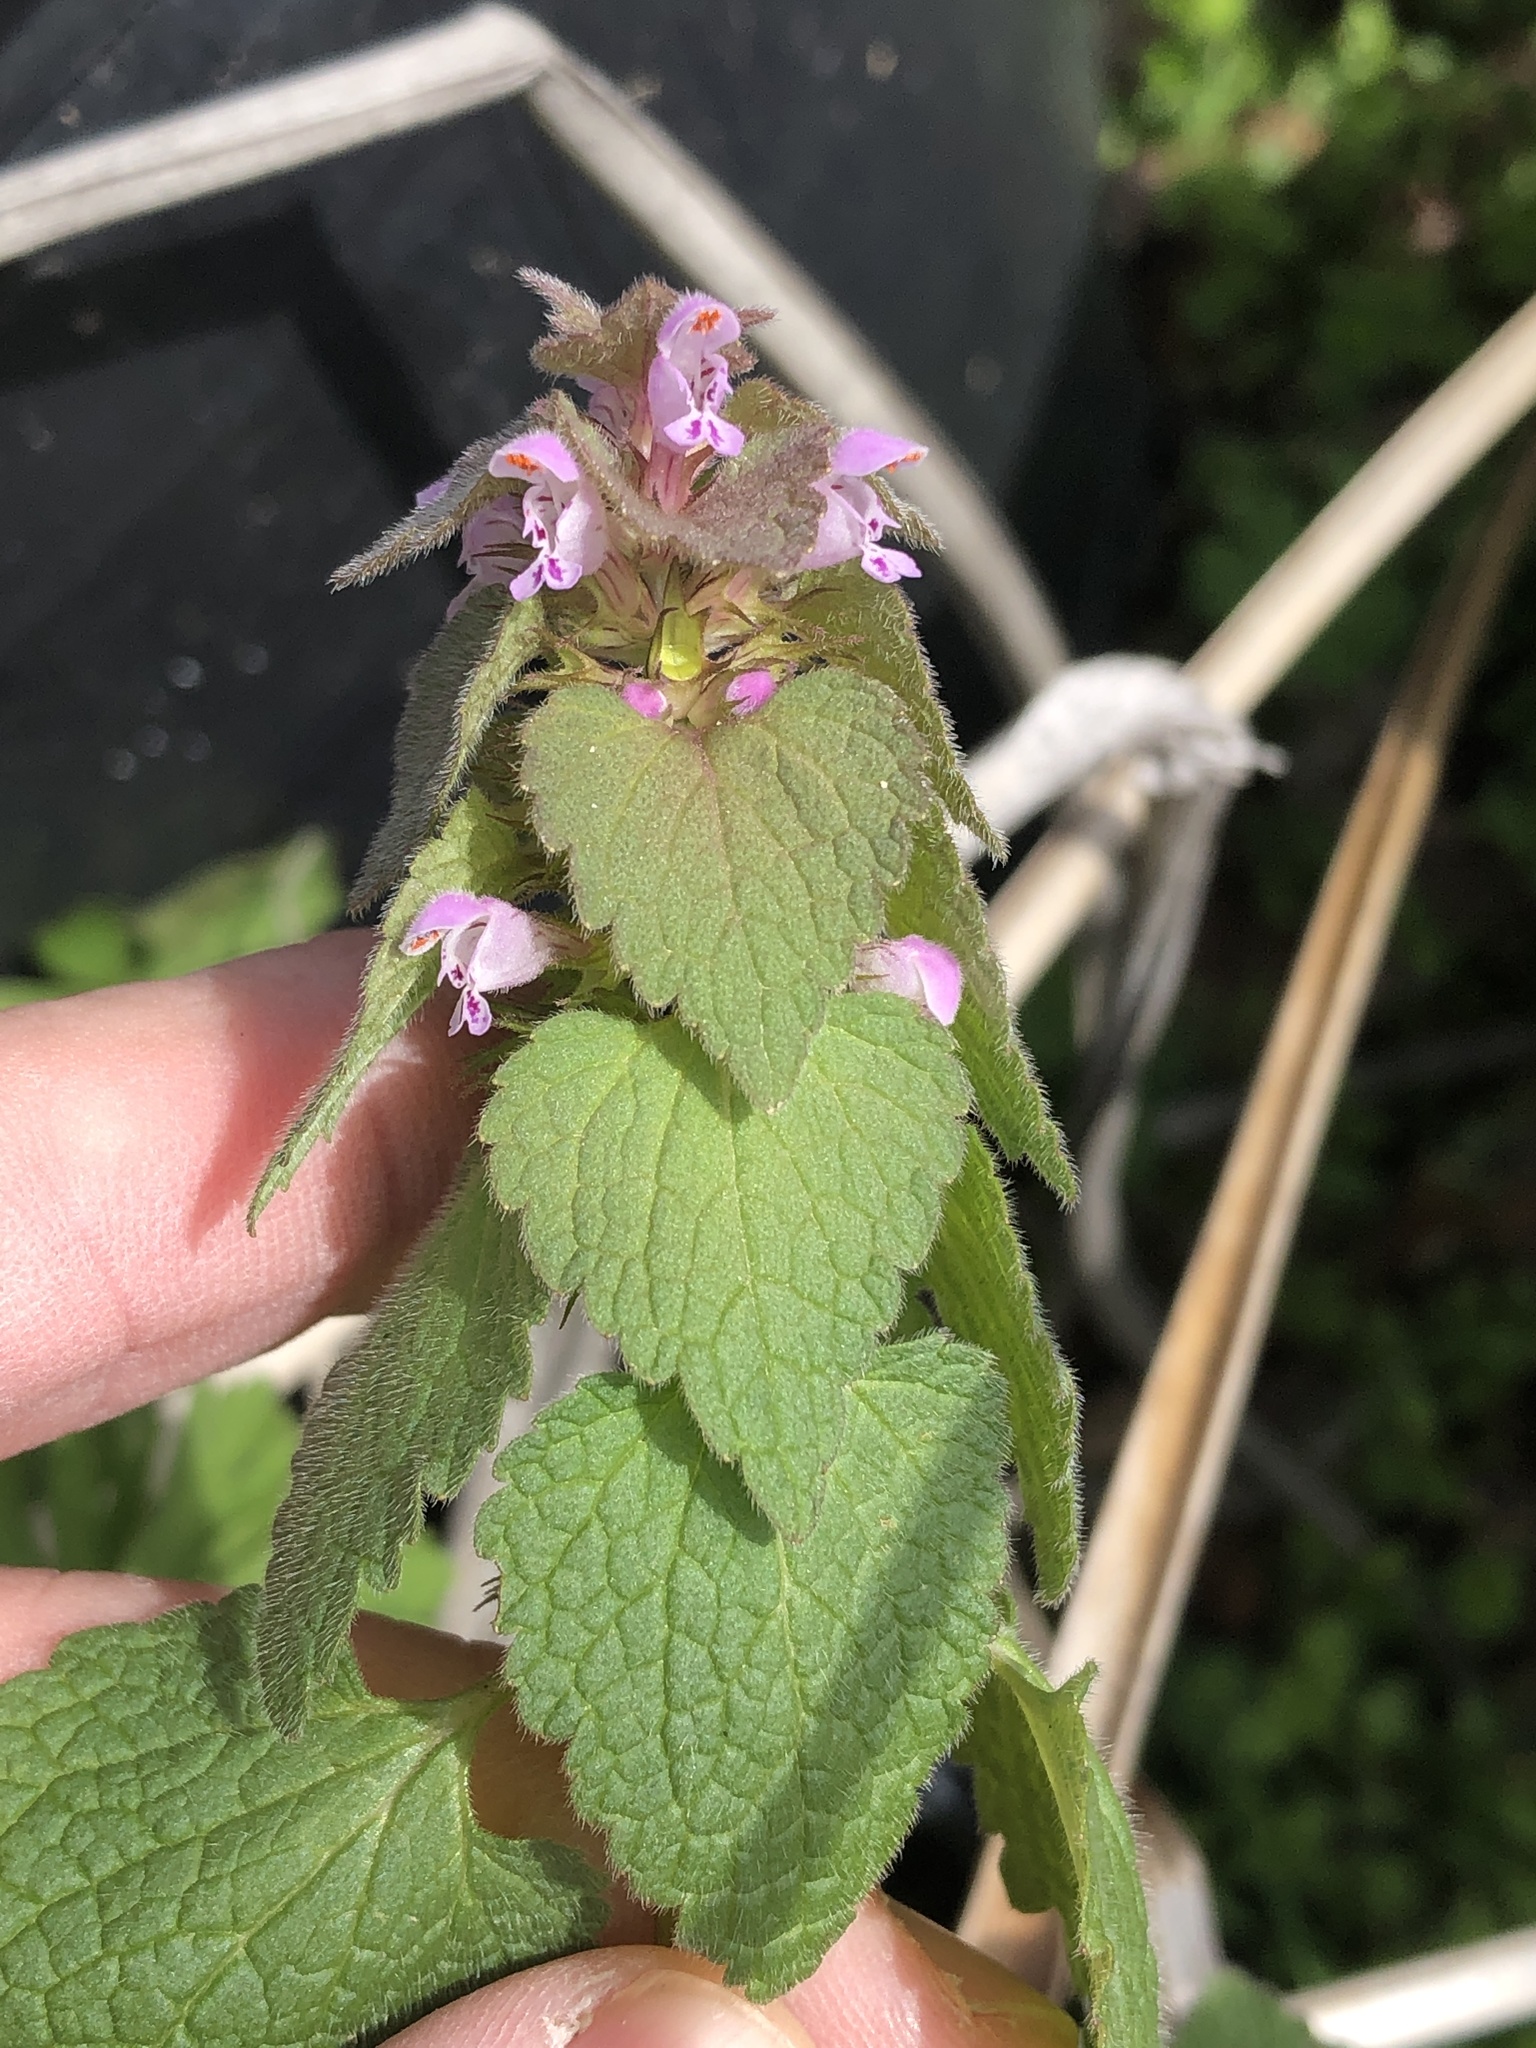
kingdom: Plantae
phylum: Tracheophyta
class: Magnoliopsida
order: Lamiales
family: Lamiaceae
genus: Lamium
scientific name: Lamium purpureum
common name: Red dead-nettle
